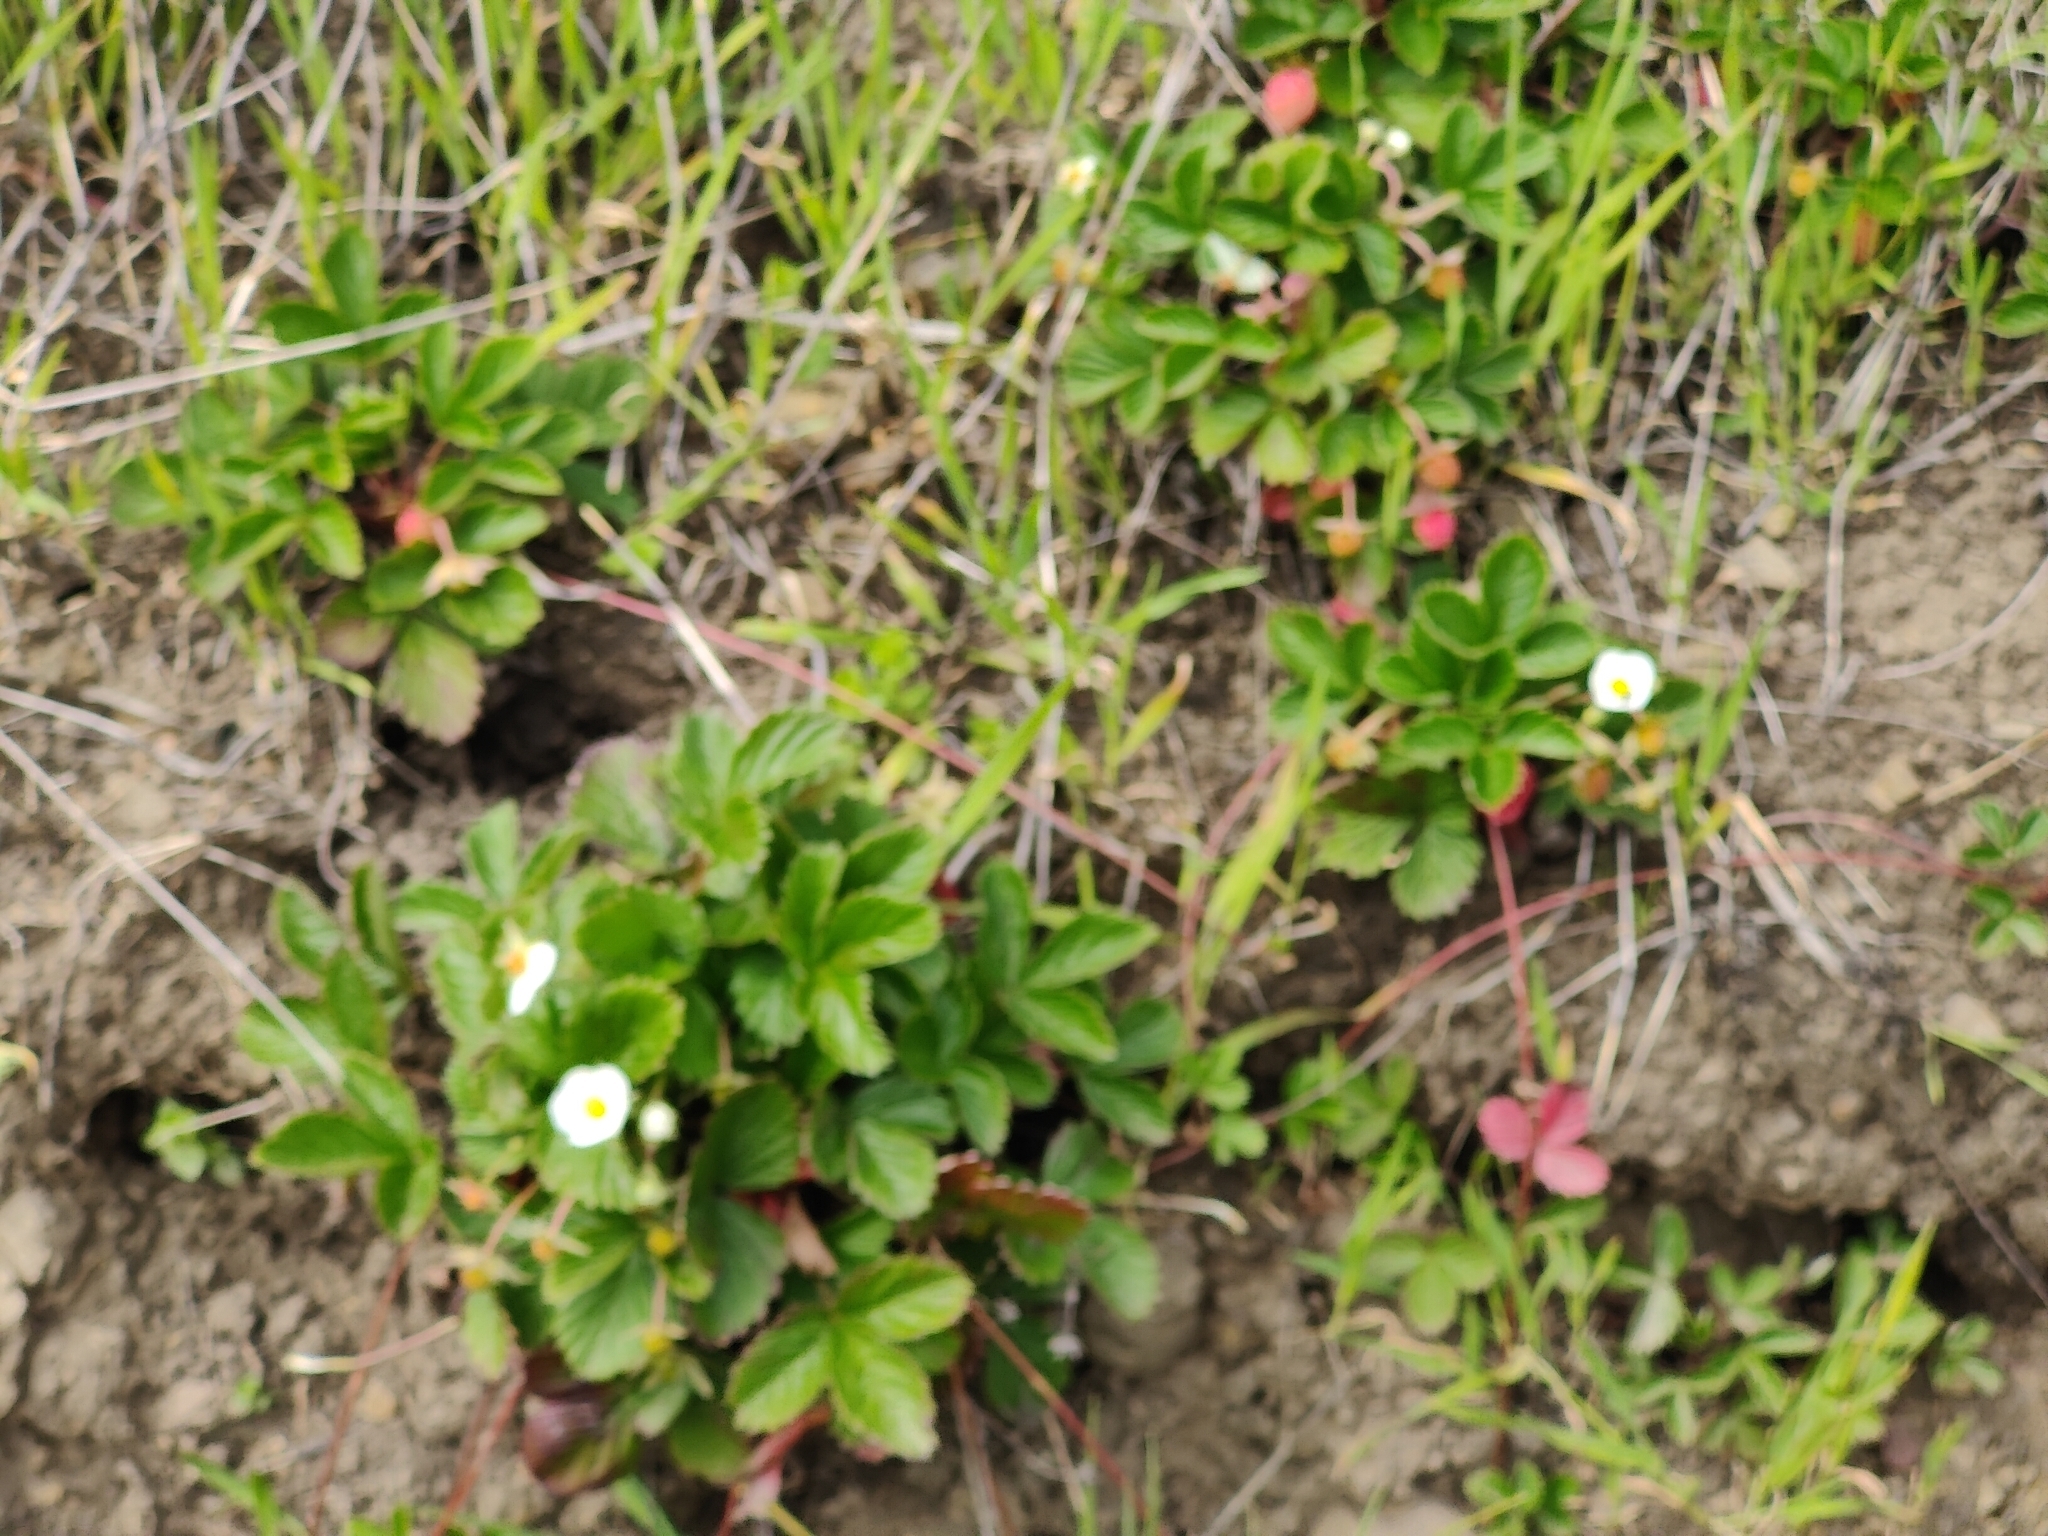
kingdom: Plantae
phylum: Tracheophyta
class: Magnoliopsida
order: Rosales
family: Rosaceae
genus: Fragaria
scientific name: Fragaria vesca
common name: Wild strawberry
